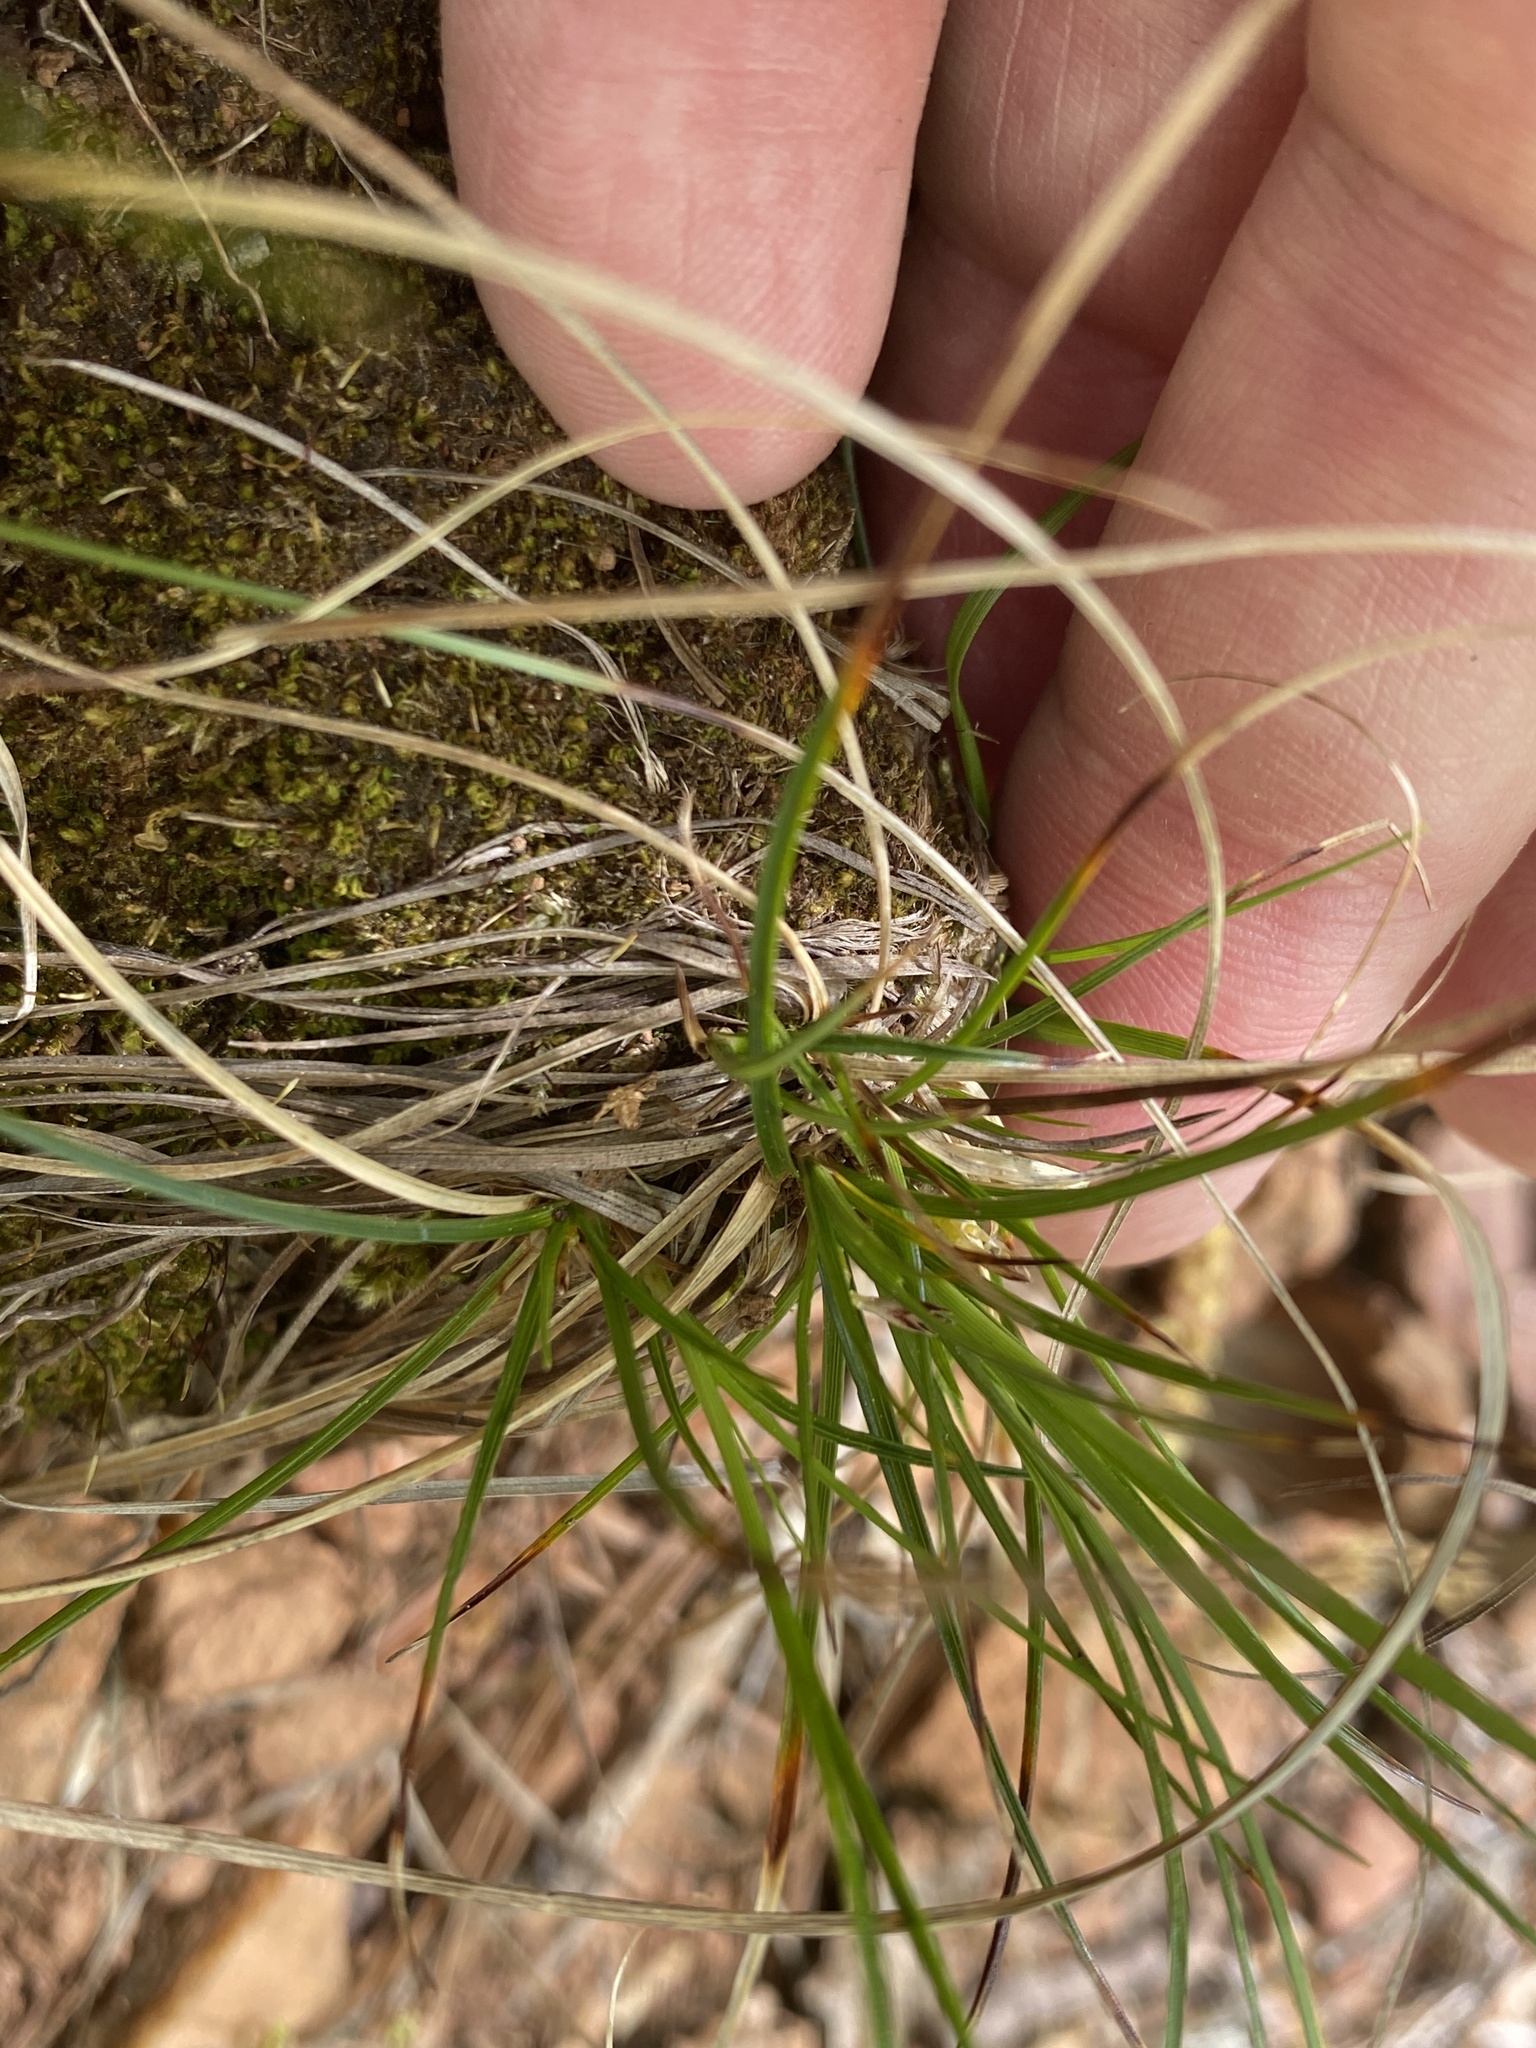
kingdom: Plantae
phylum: Tracheophyta
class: Liliopsida
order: Poales
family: Cyperaceae
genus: Carex
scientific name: Carex tonsa
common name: Bald sedge
